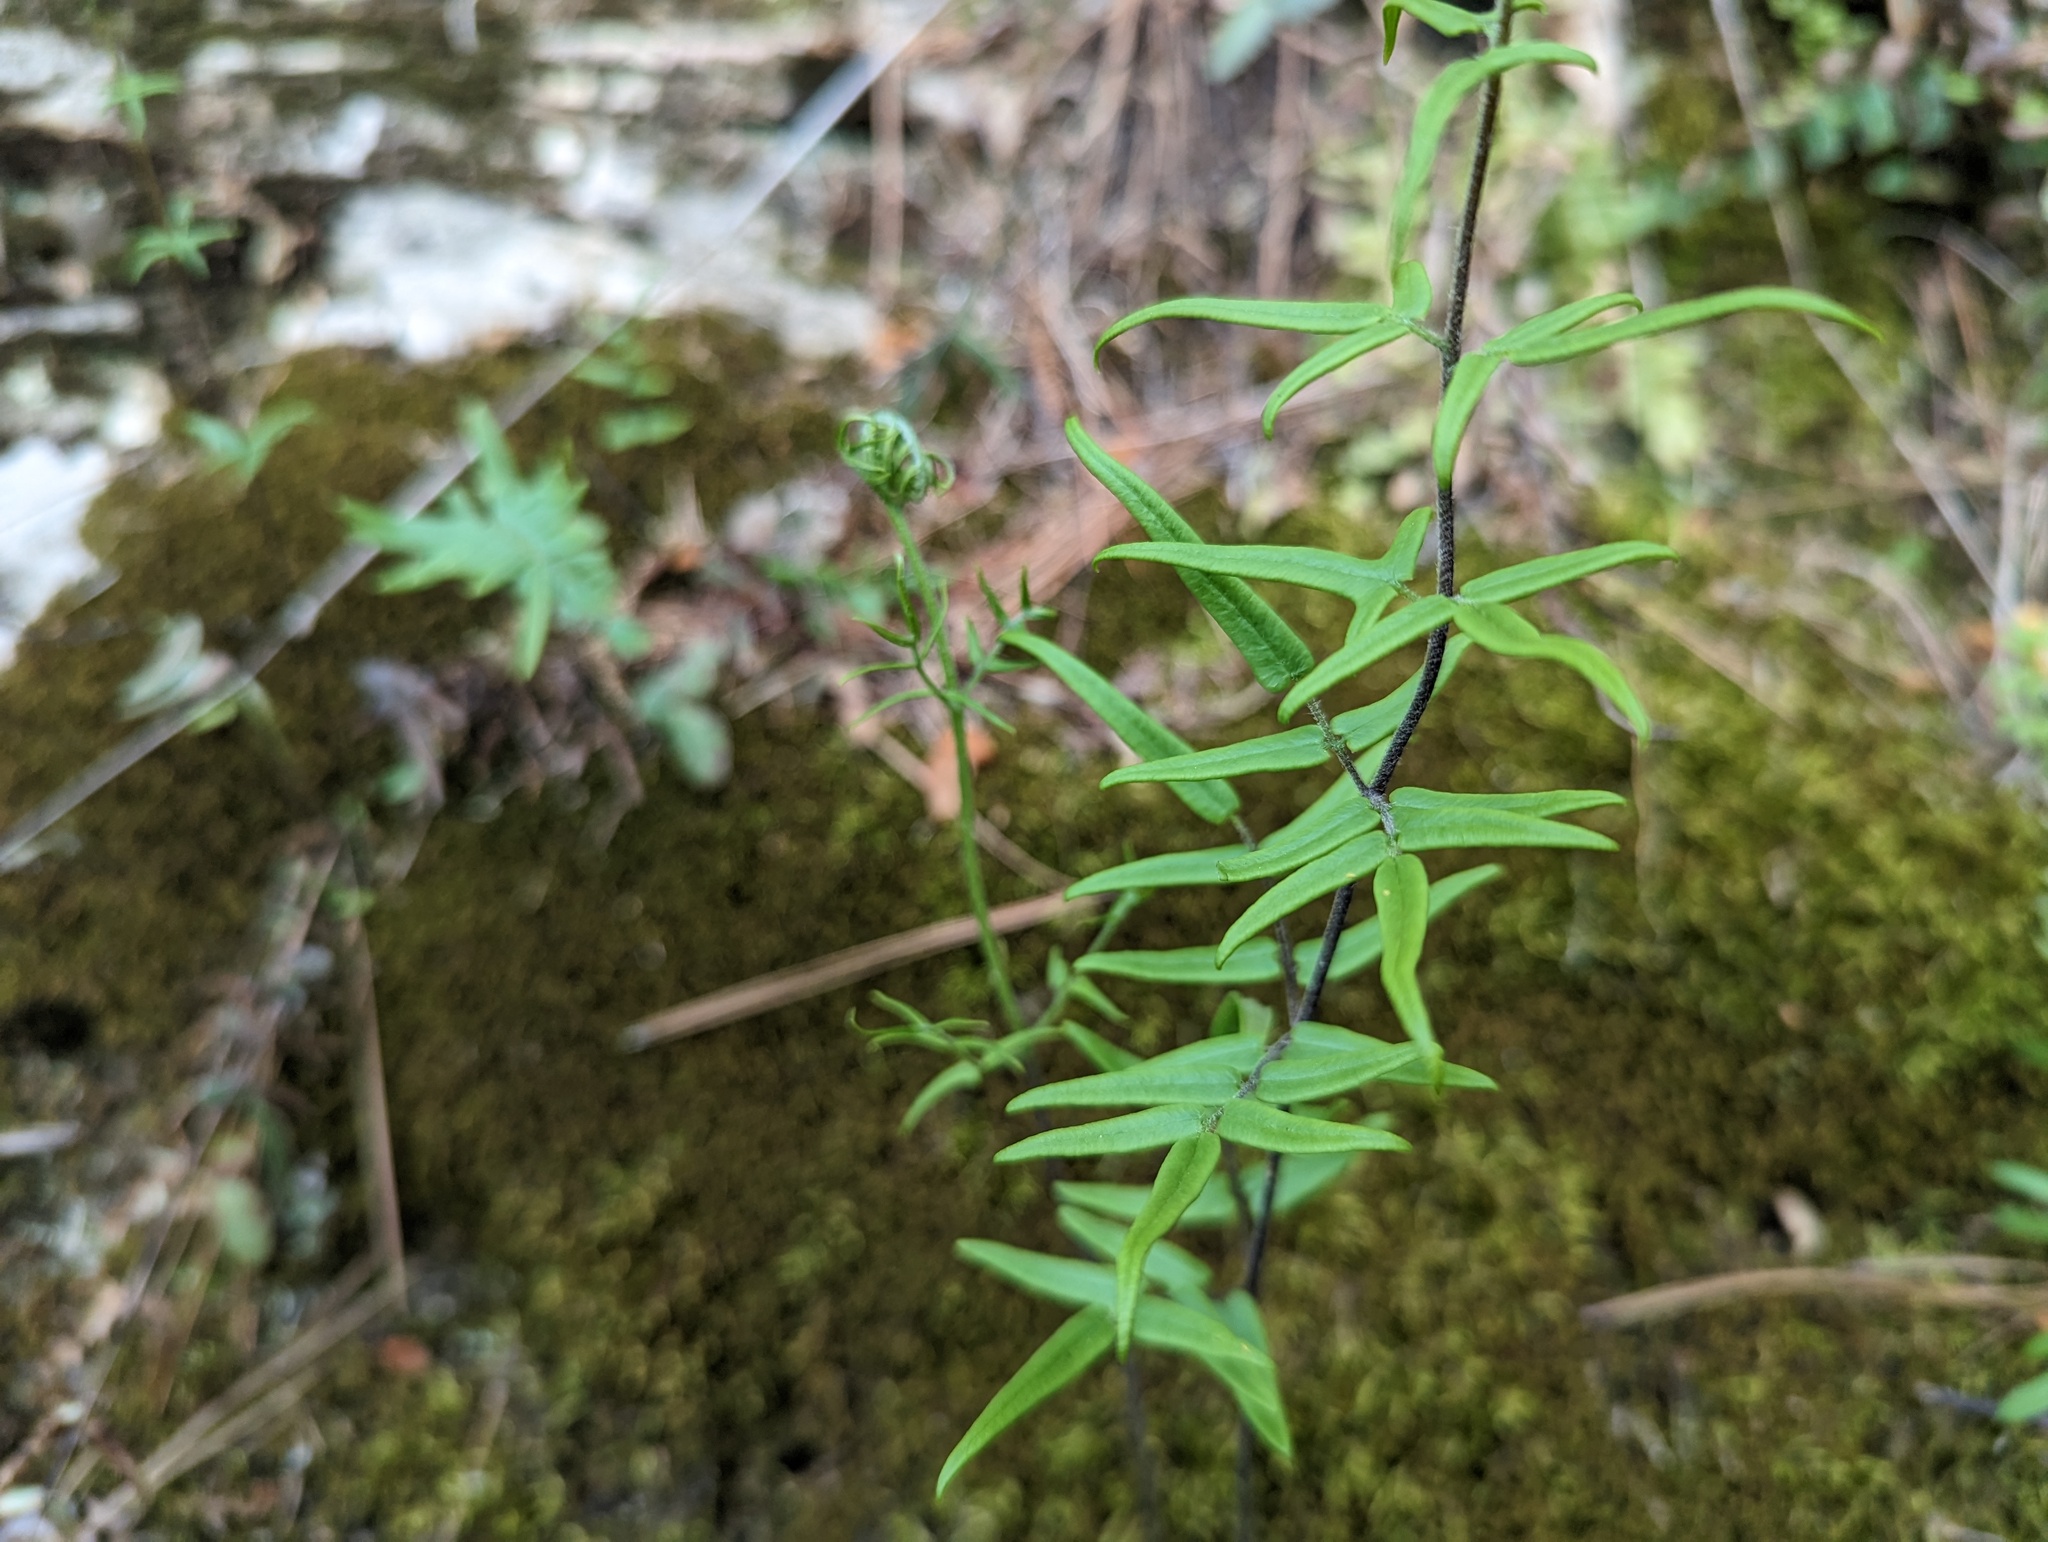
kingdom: Plantae
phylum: Tracheophyta
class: Polypodiopsida
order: Polypodiales
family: Pteridaceae
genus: Pellaea
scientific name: Pellaea atropurpurea
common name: Hairy cliffbrake
